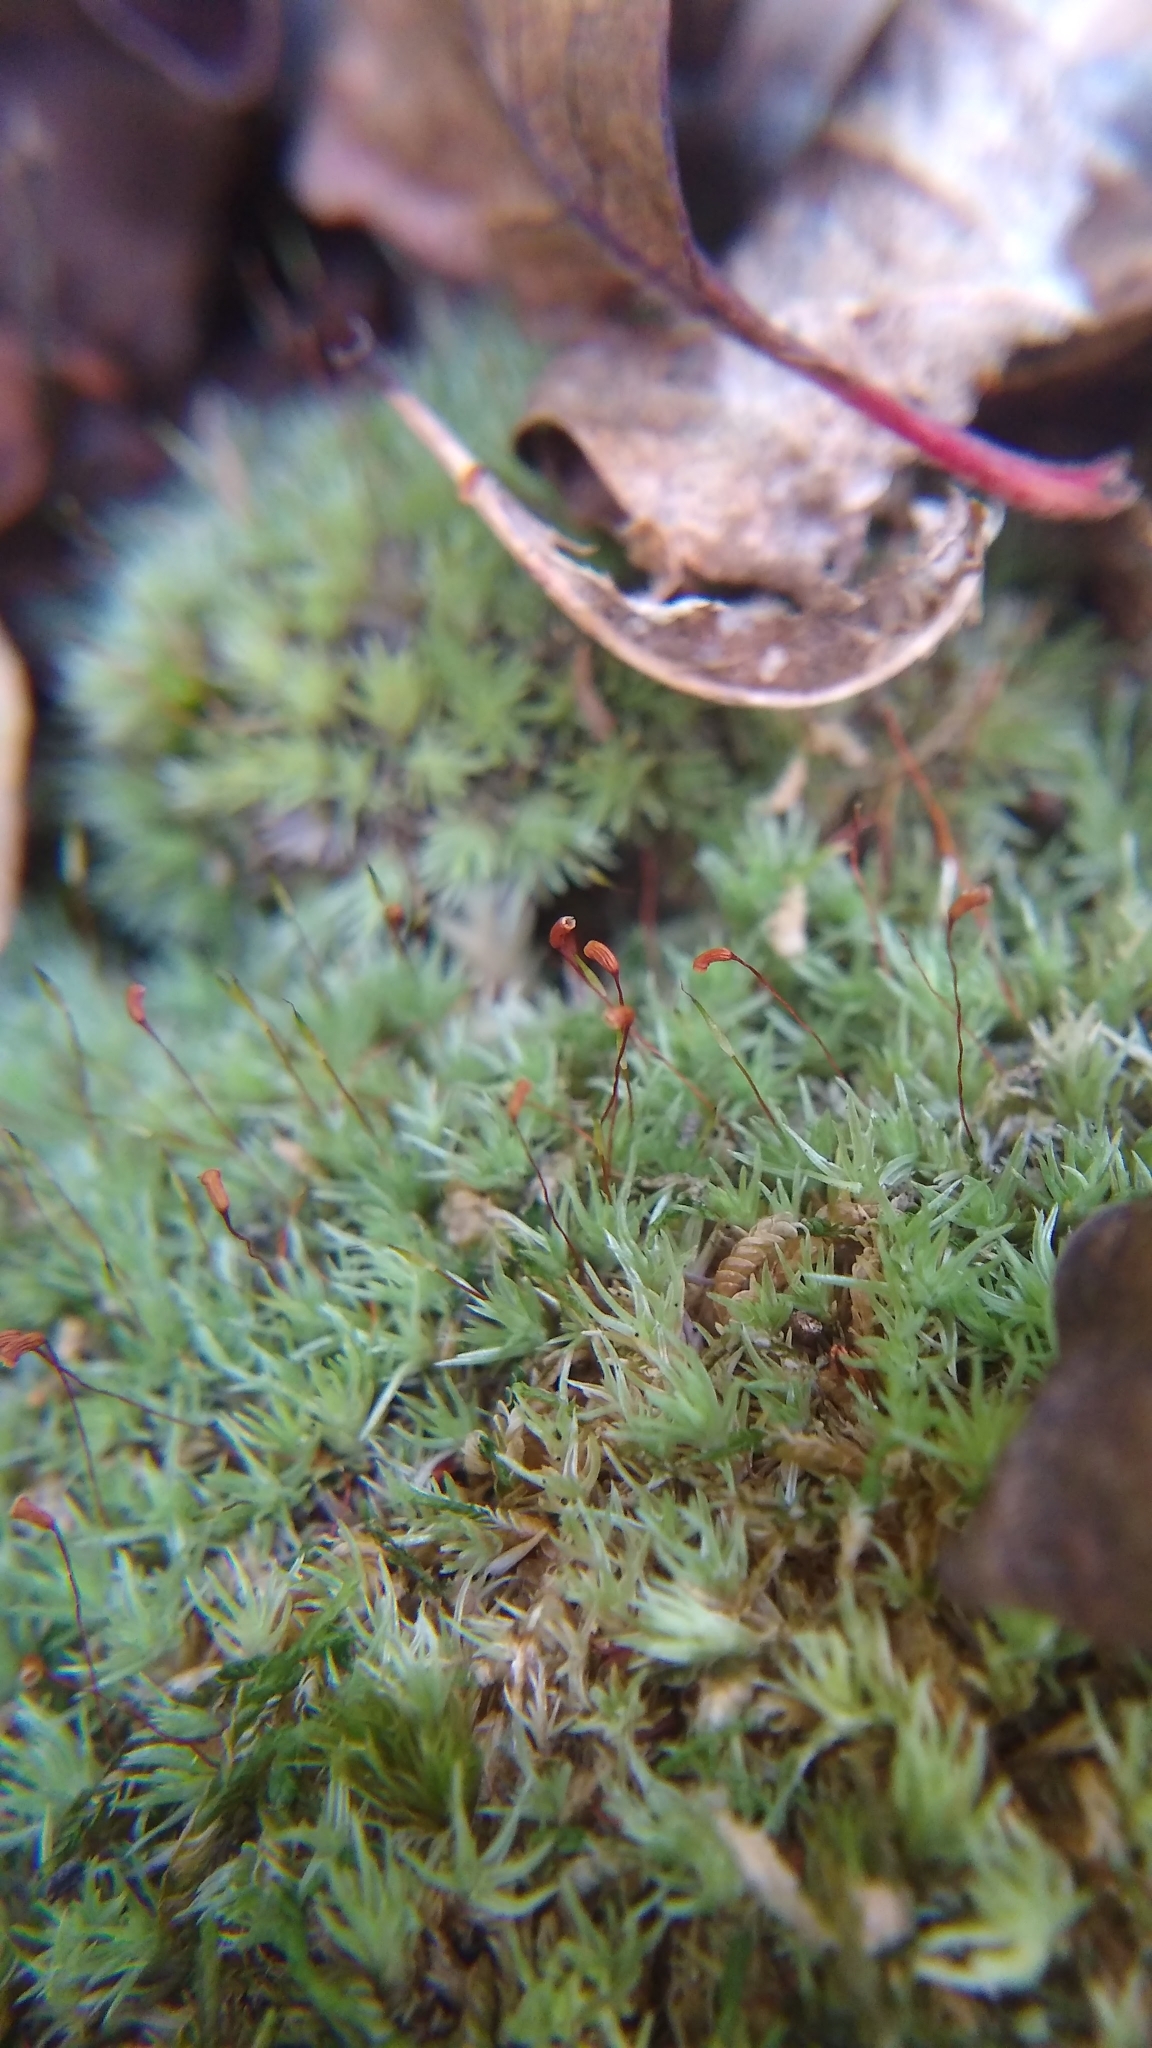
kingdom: Plantae
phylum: Bryophyta
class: Bryopsida
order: Dicranales
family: Leucobryaceae
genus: Leucobryum
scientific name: Leucobryum albidum
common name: White moss
